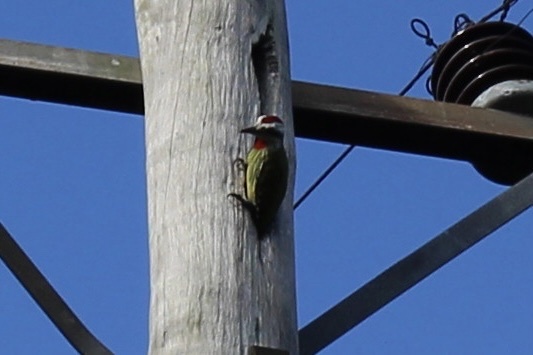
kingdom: Animalia
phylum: Chordata
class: Aves
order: Piciformes
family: Picidae
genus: Xiphidiopicus
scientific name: Xiphidiopicus percussus
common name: Cuban green woodpecker
